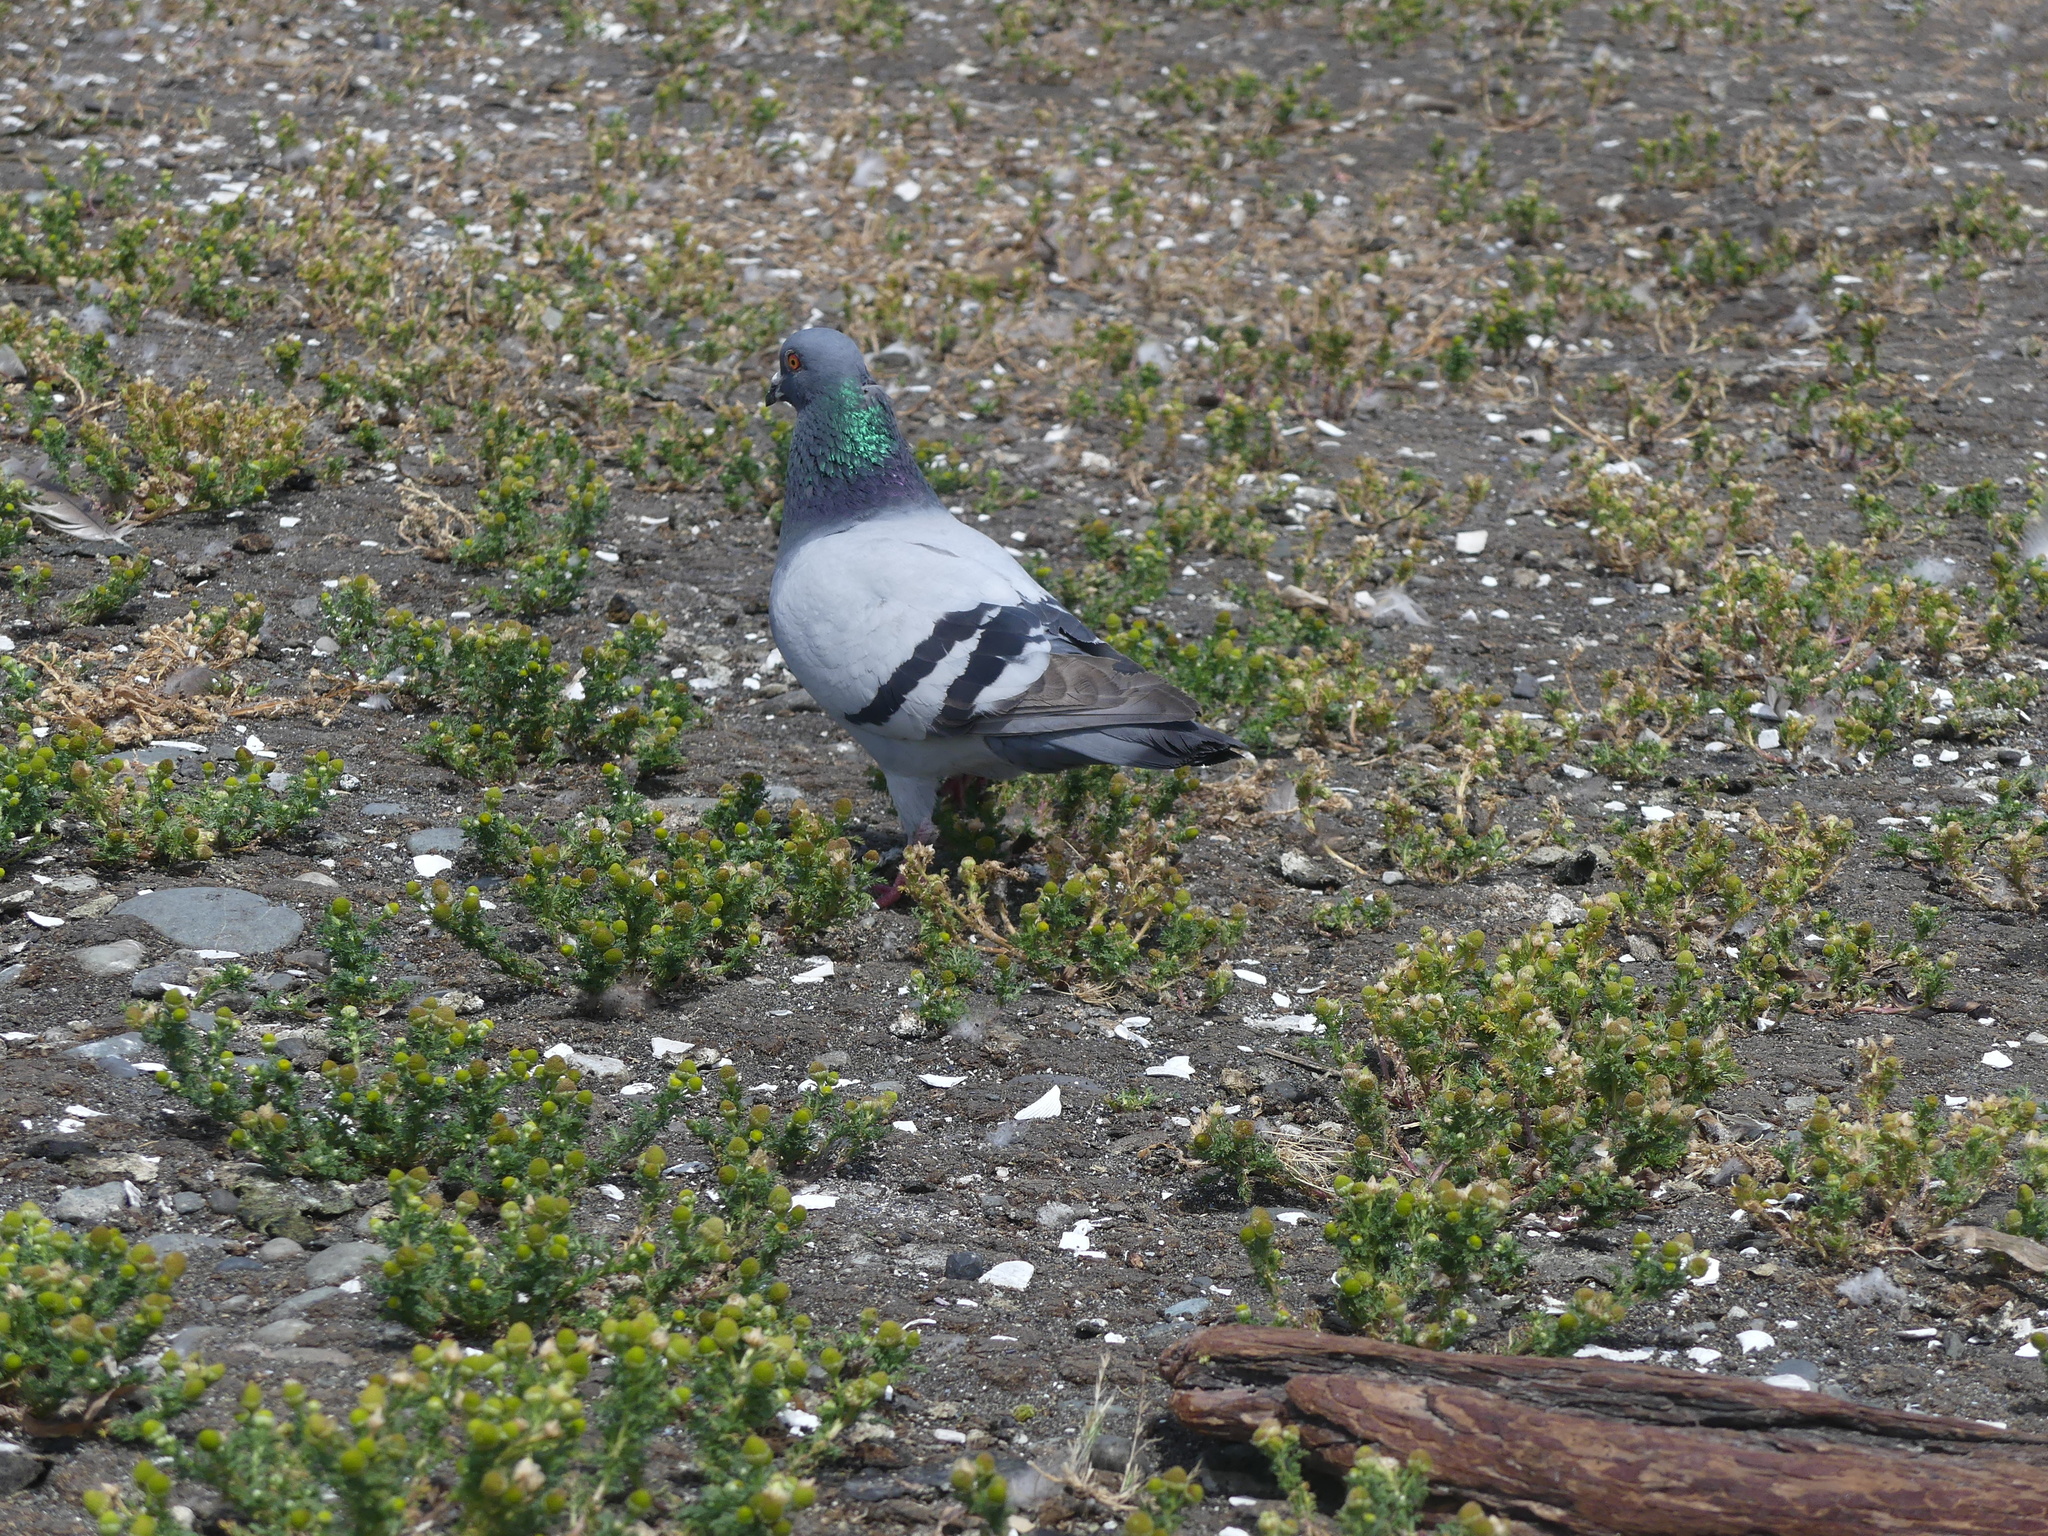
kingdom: Animalia
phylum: Chordata
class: Aves
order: Columbiformes
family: Columbidae
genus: Columba
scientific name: Columba livia
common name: Rock pigeon
